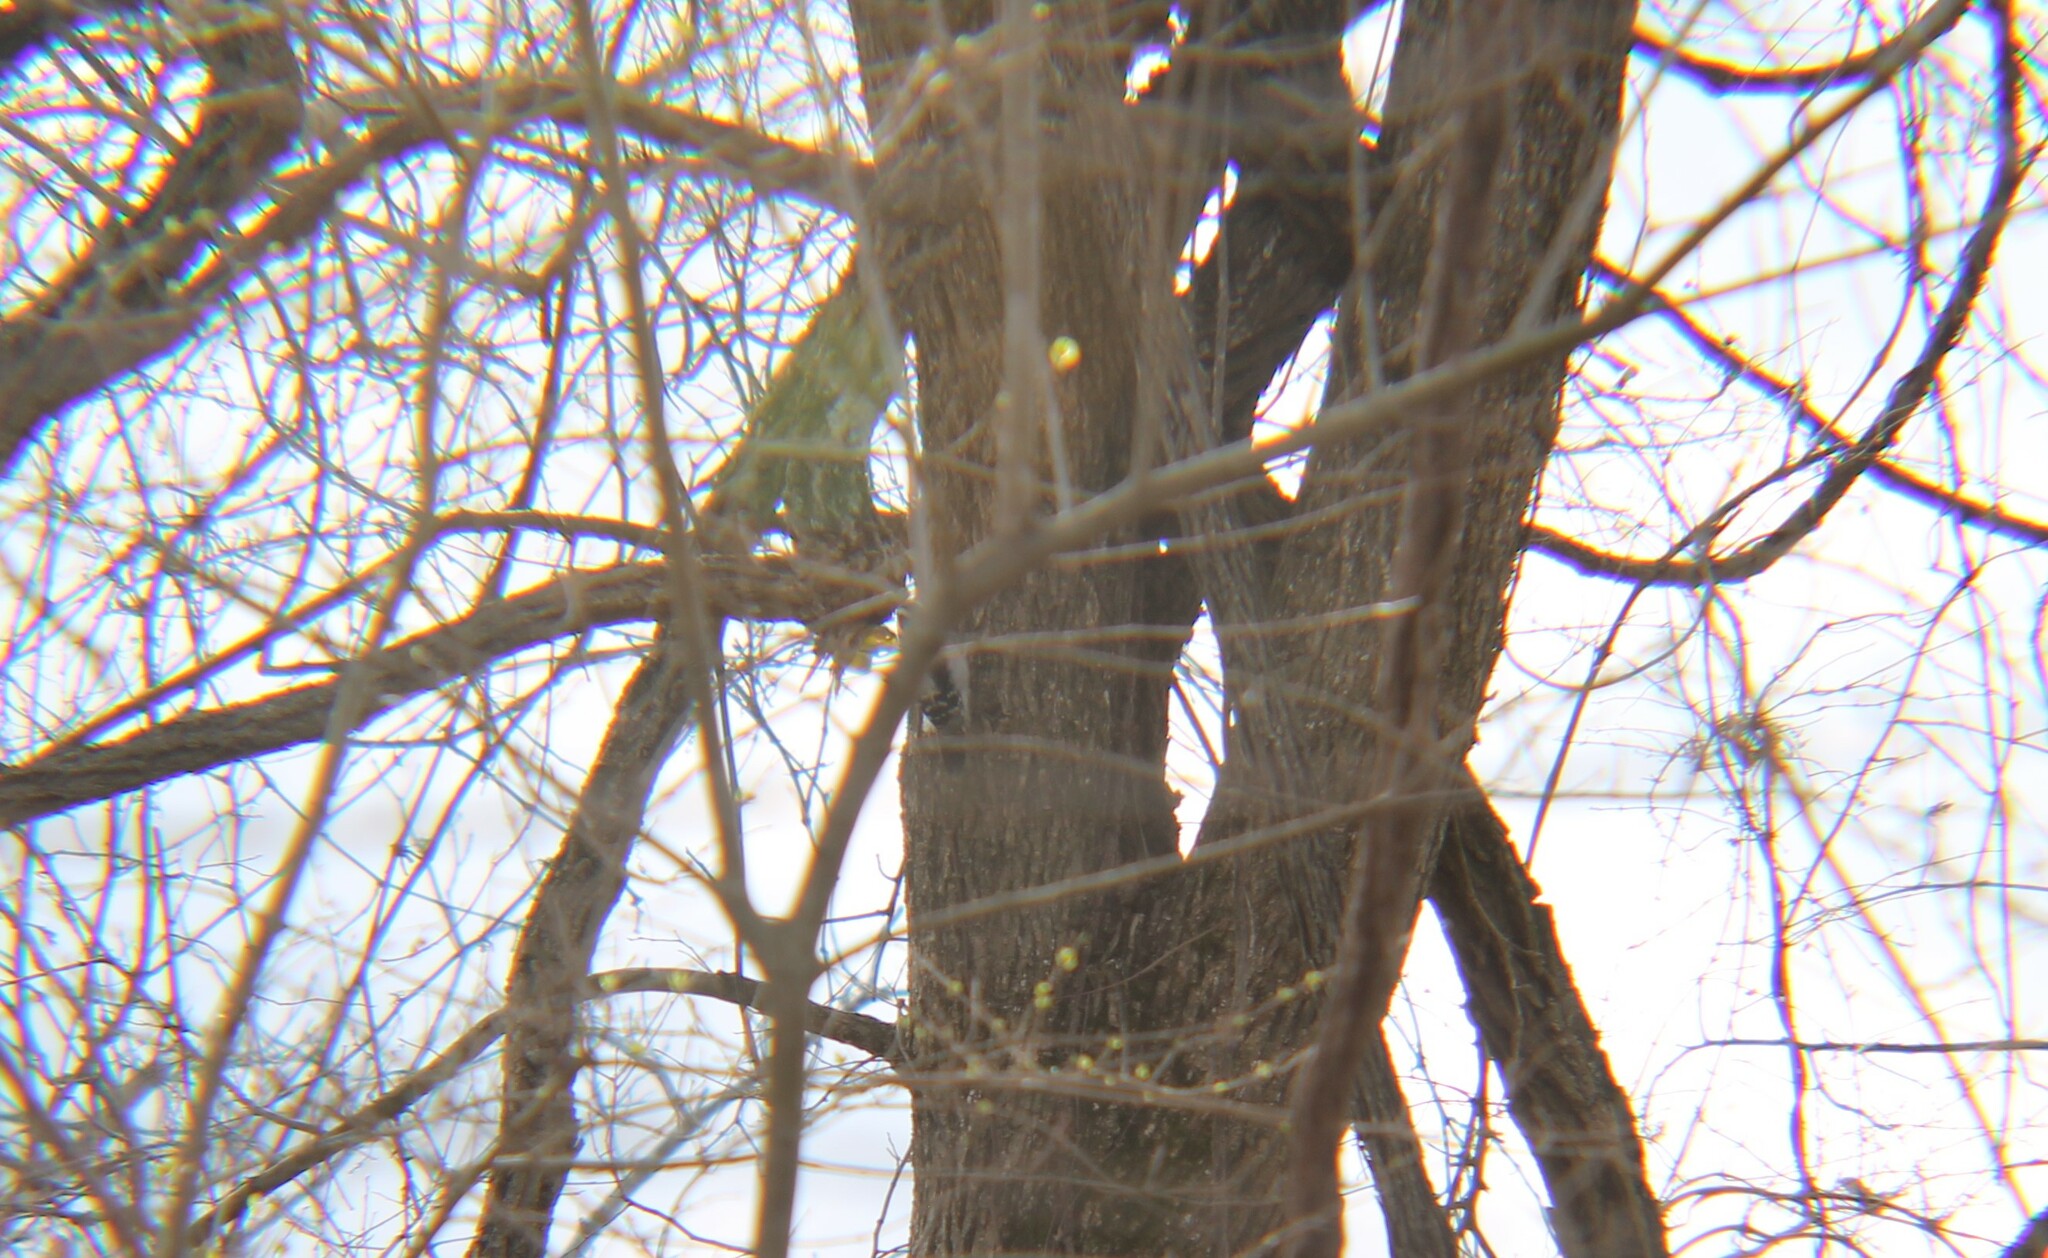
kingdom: Animalia
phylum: Chordata
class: Aves
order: Piciformes
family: Picidae
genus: Dryobates
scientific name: Dryobates pubescens
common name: Downy woodpecker
